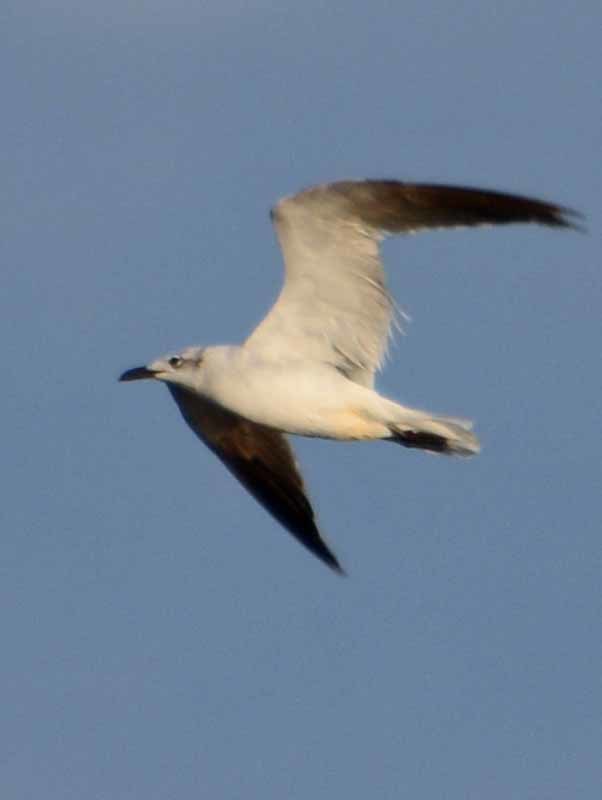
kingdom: Animalia
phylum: Chordata
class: Aves
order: Charadriiformes
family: Laridae
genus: Leucophaeus
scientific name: Leucophaeus atricilla
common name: Laughing gull
